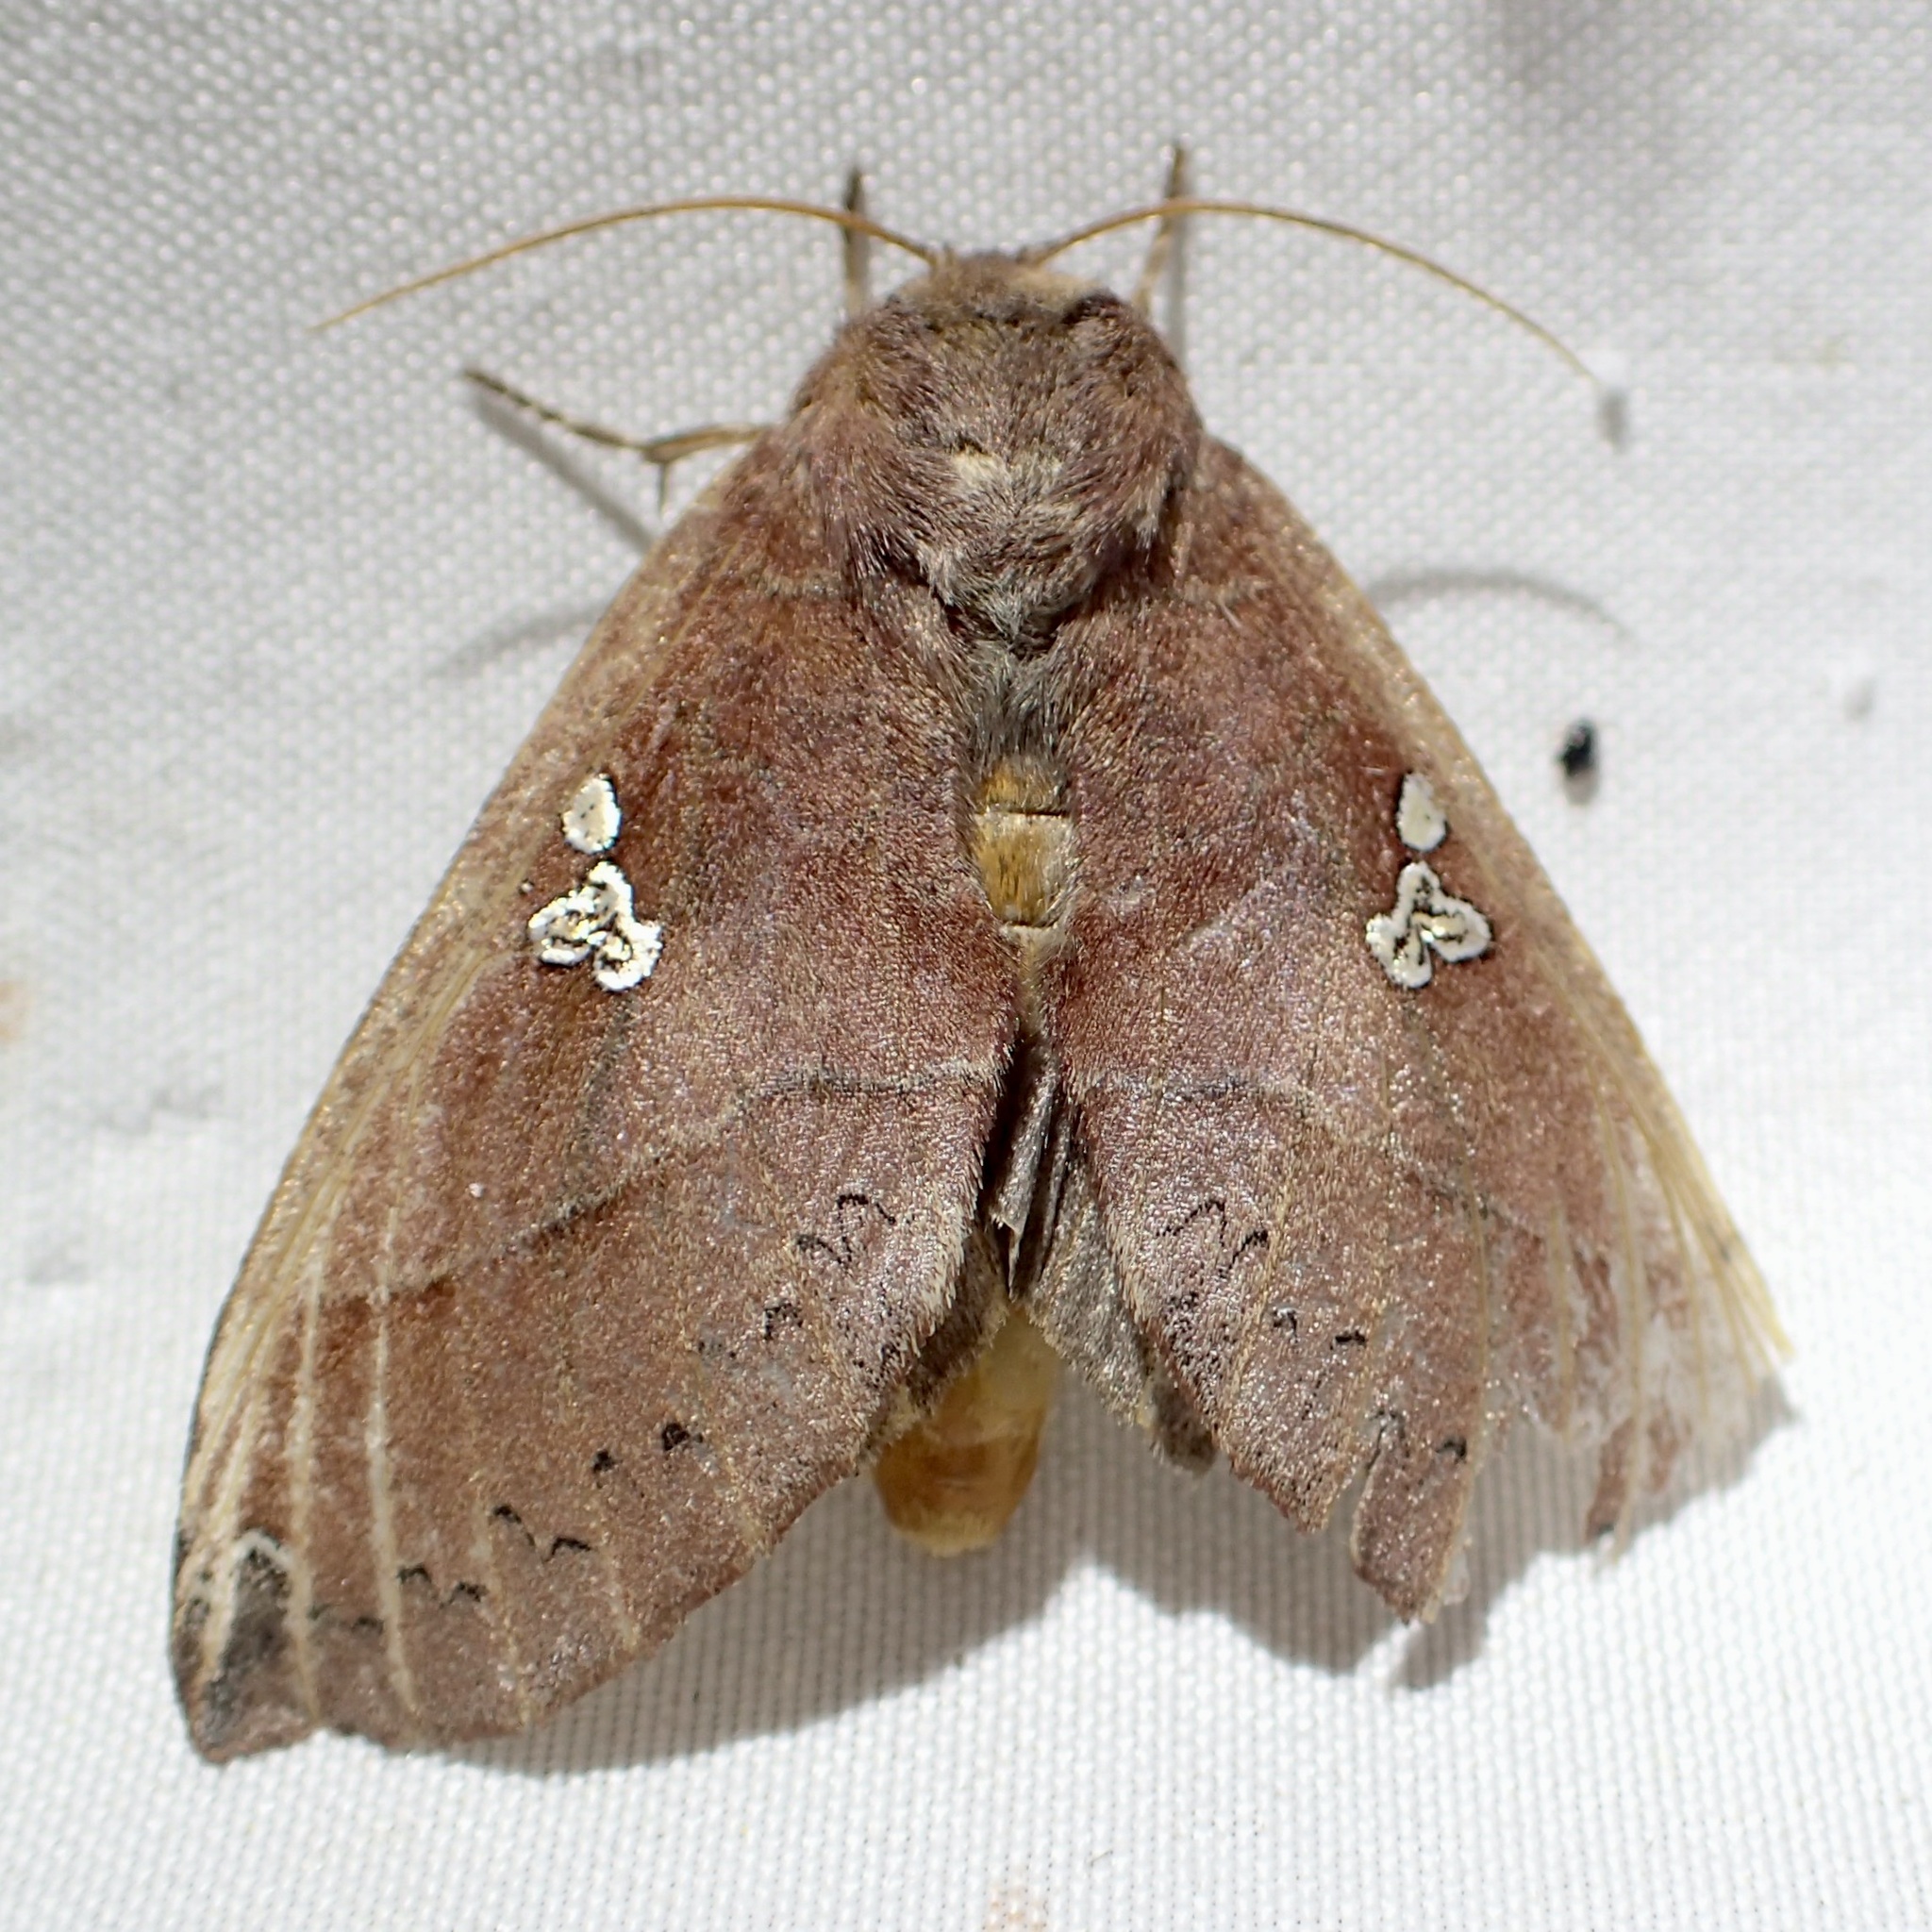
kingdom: Animalia
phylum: Arthropoda
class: Insecta
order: Lepidoptera
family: Notodontidae
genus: Pseudhapigia
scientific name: Pseudhapigia brunnea
